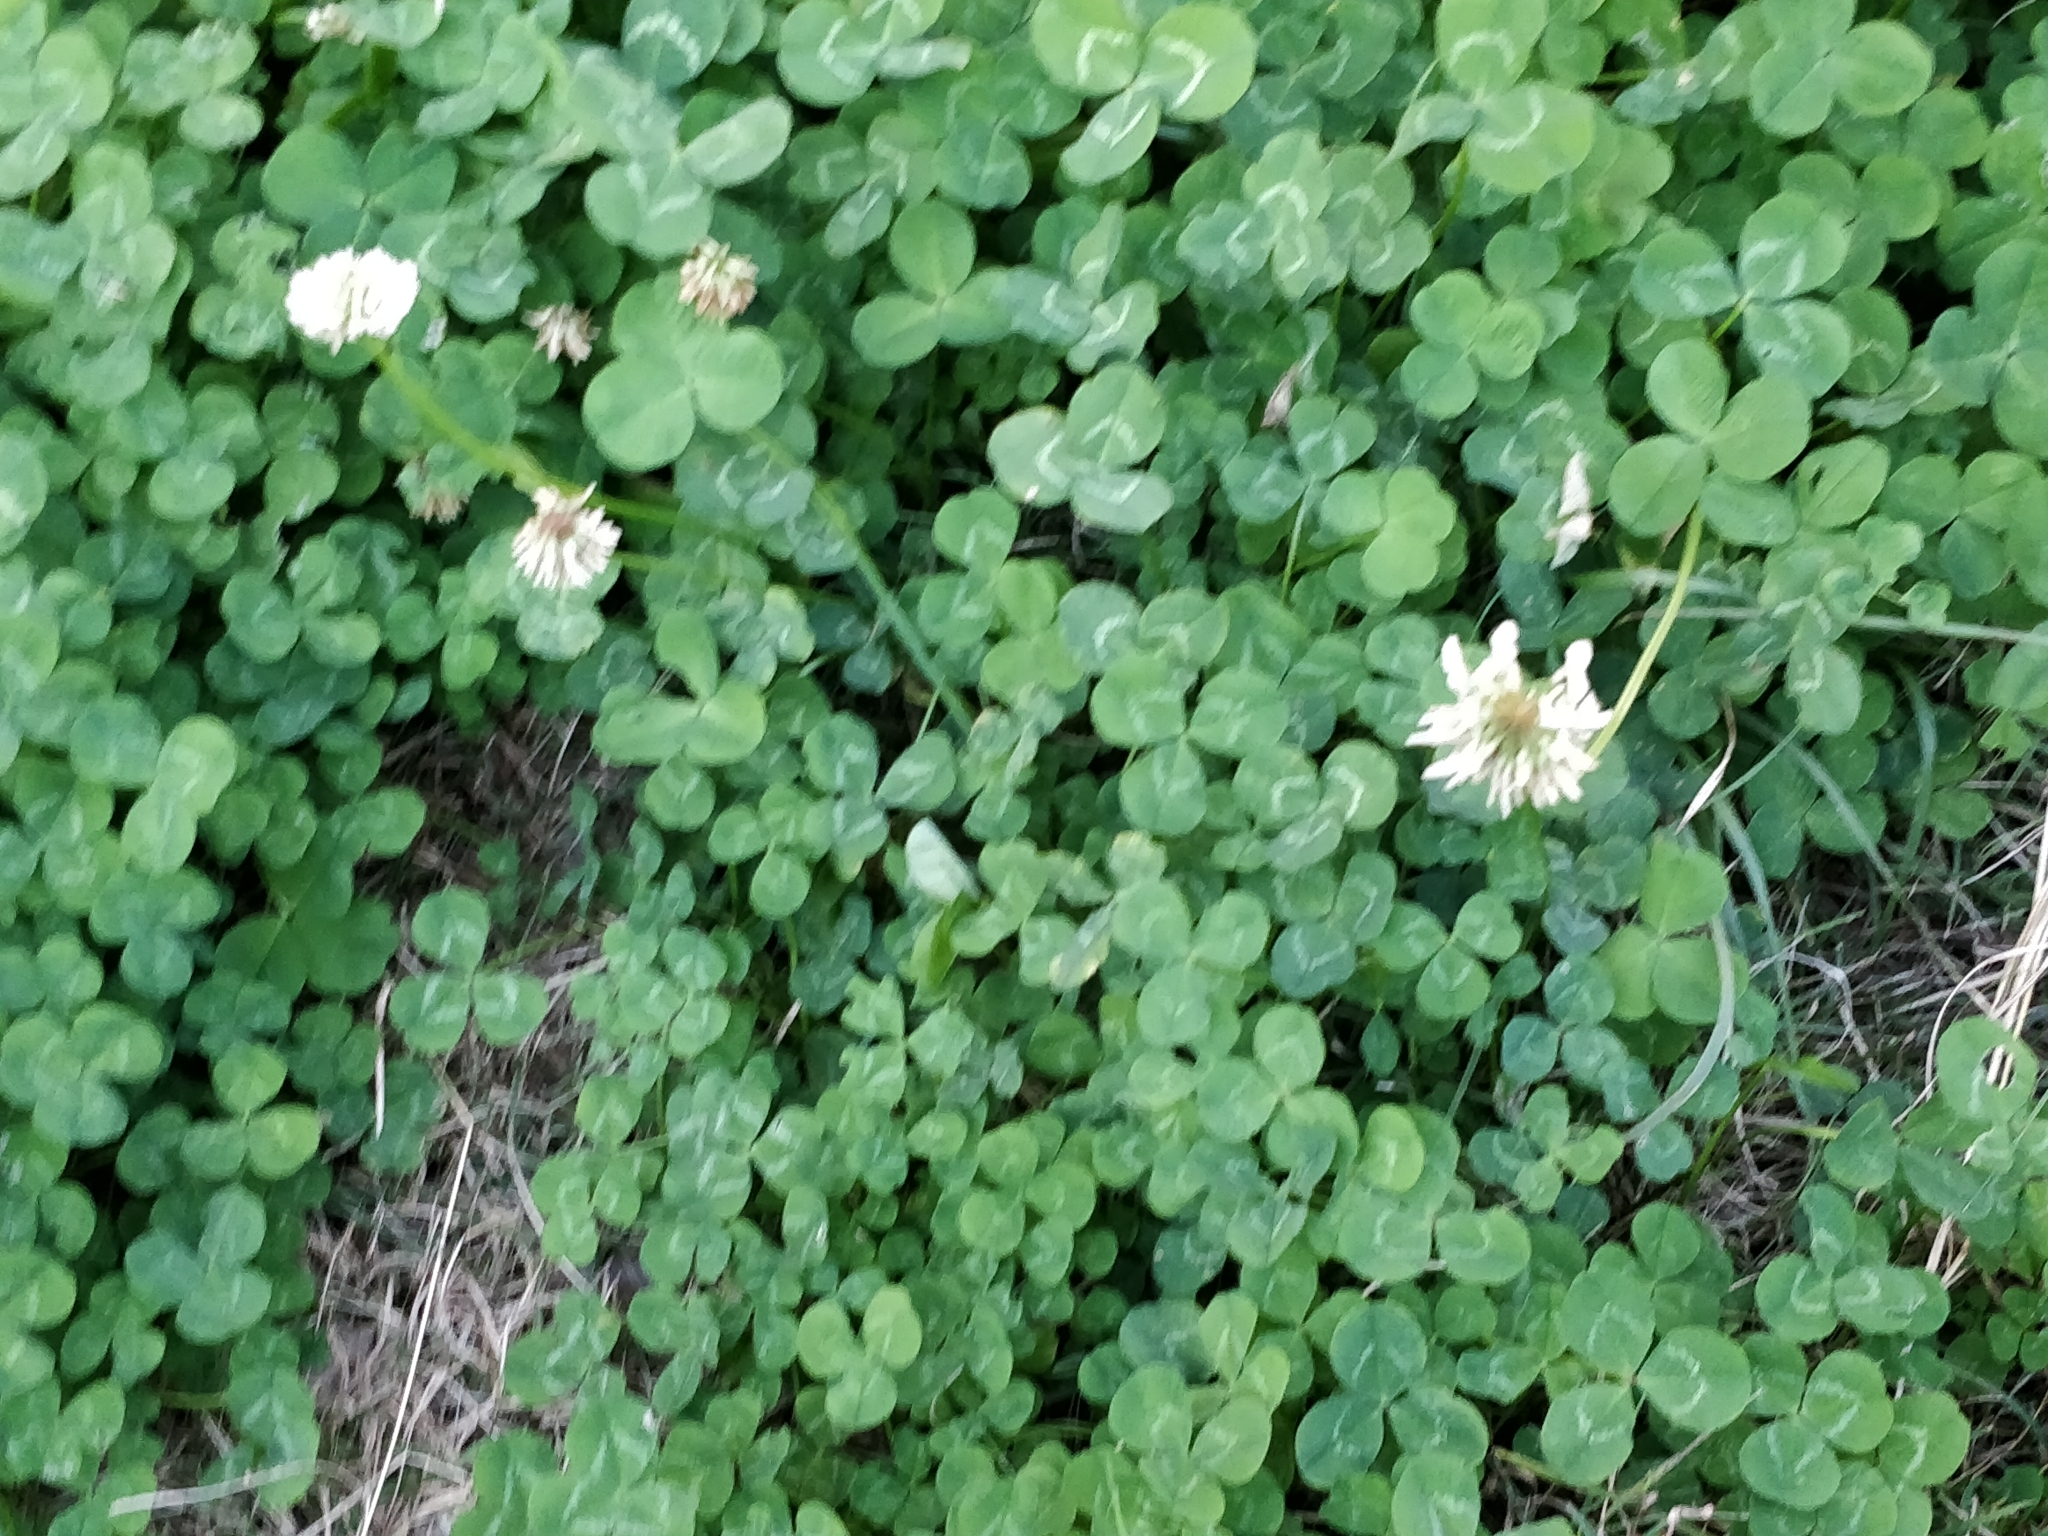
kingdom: Plantae
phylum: Tracheophyta
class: Magnoliopsida
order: Fabales
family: Fabaceae
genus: Trifolium
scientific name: Trifolium repens
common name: White clover
